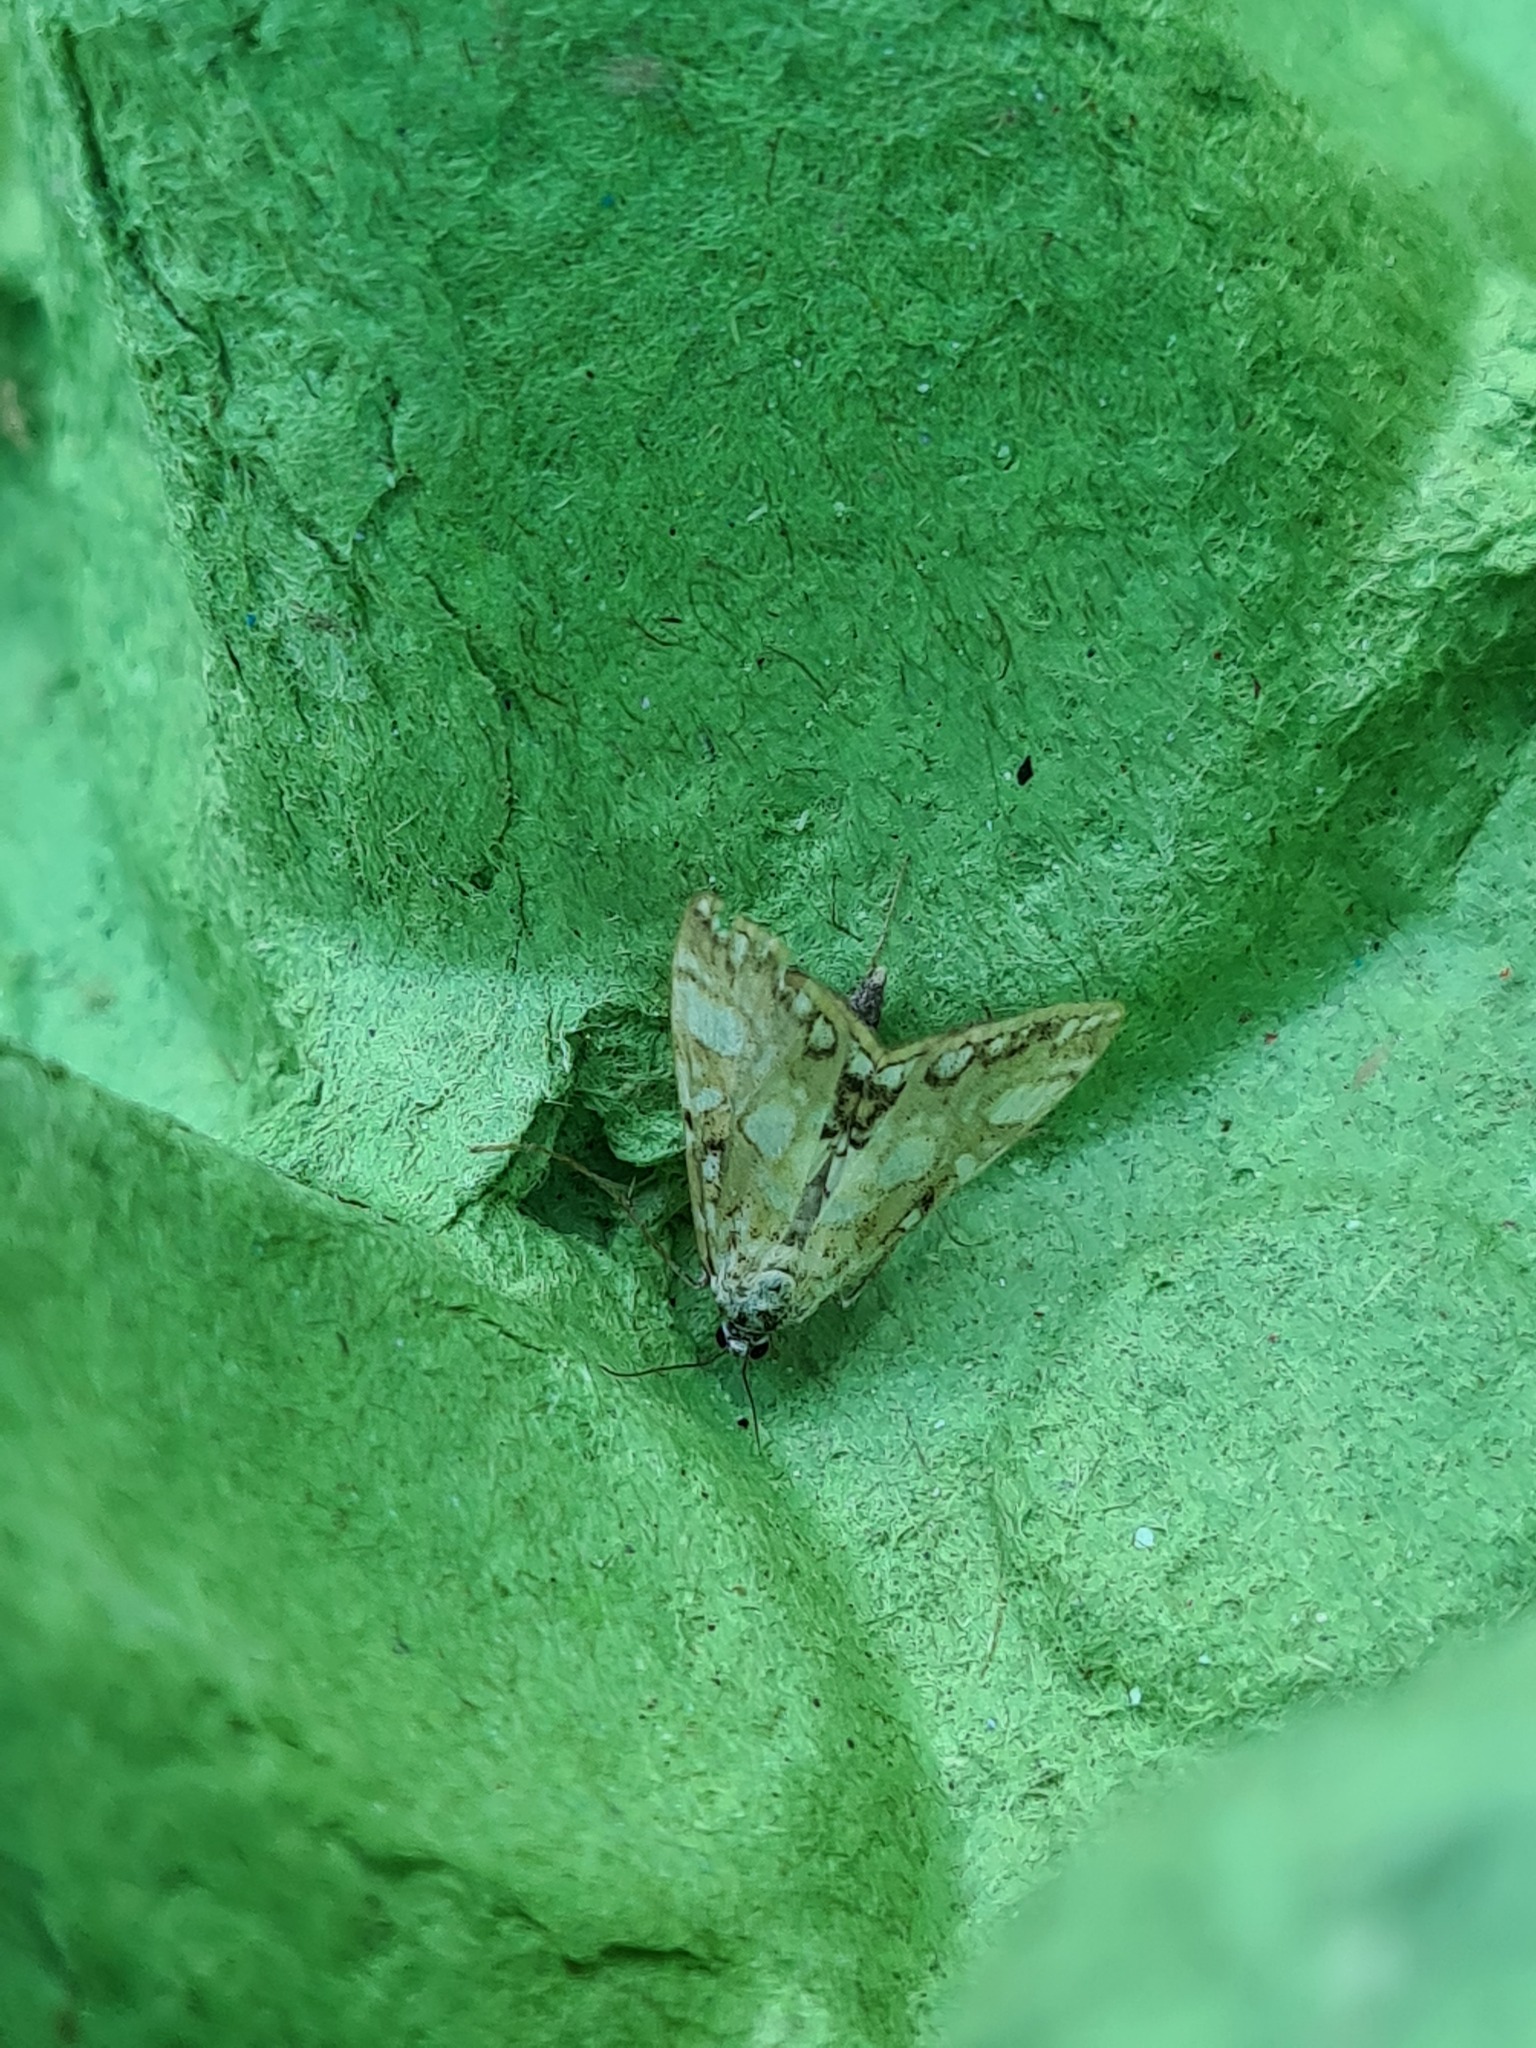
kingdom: Animalia
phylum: Arthropoda
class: Insecta
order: Lepidoptera
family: Crambidae
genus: Elophila
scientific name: Elophila nymphaeata
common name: Brown china-mark
